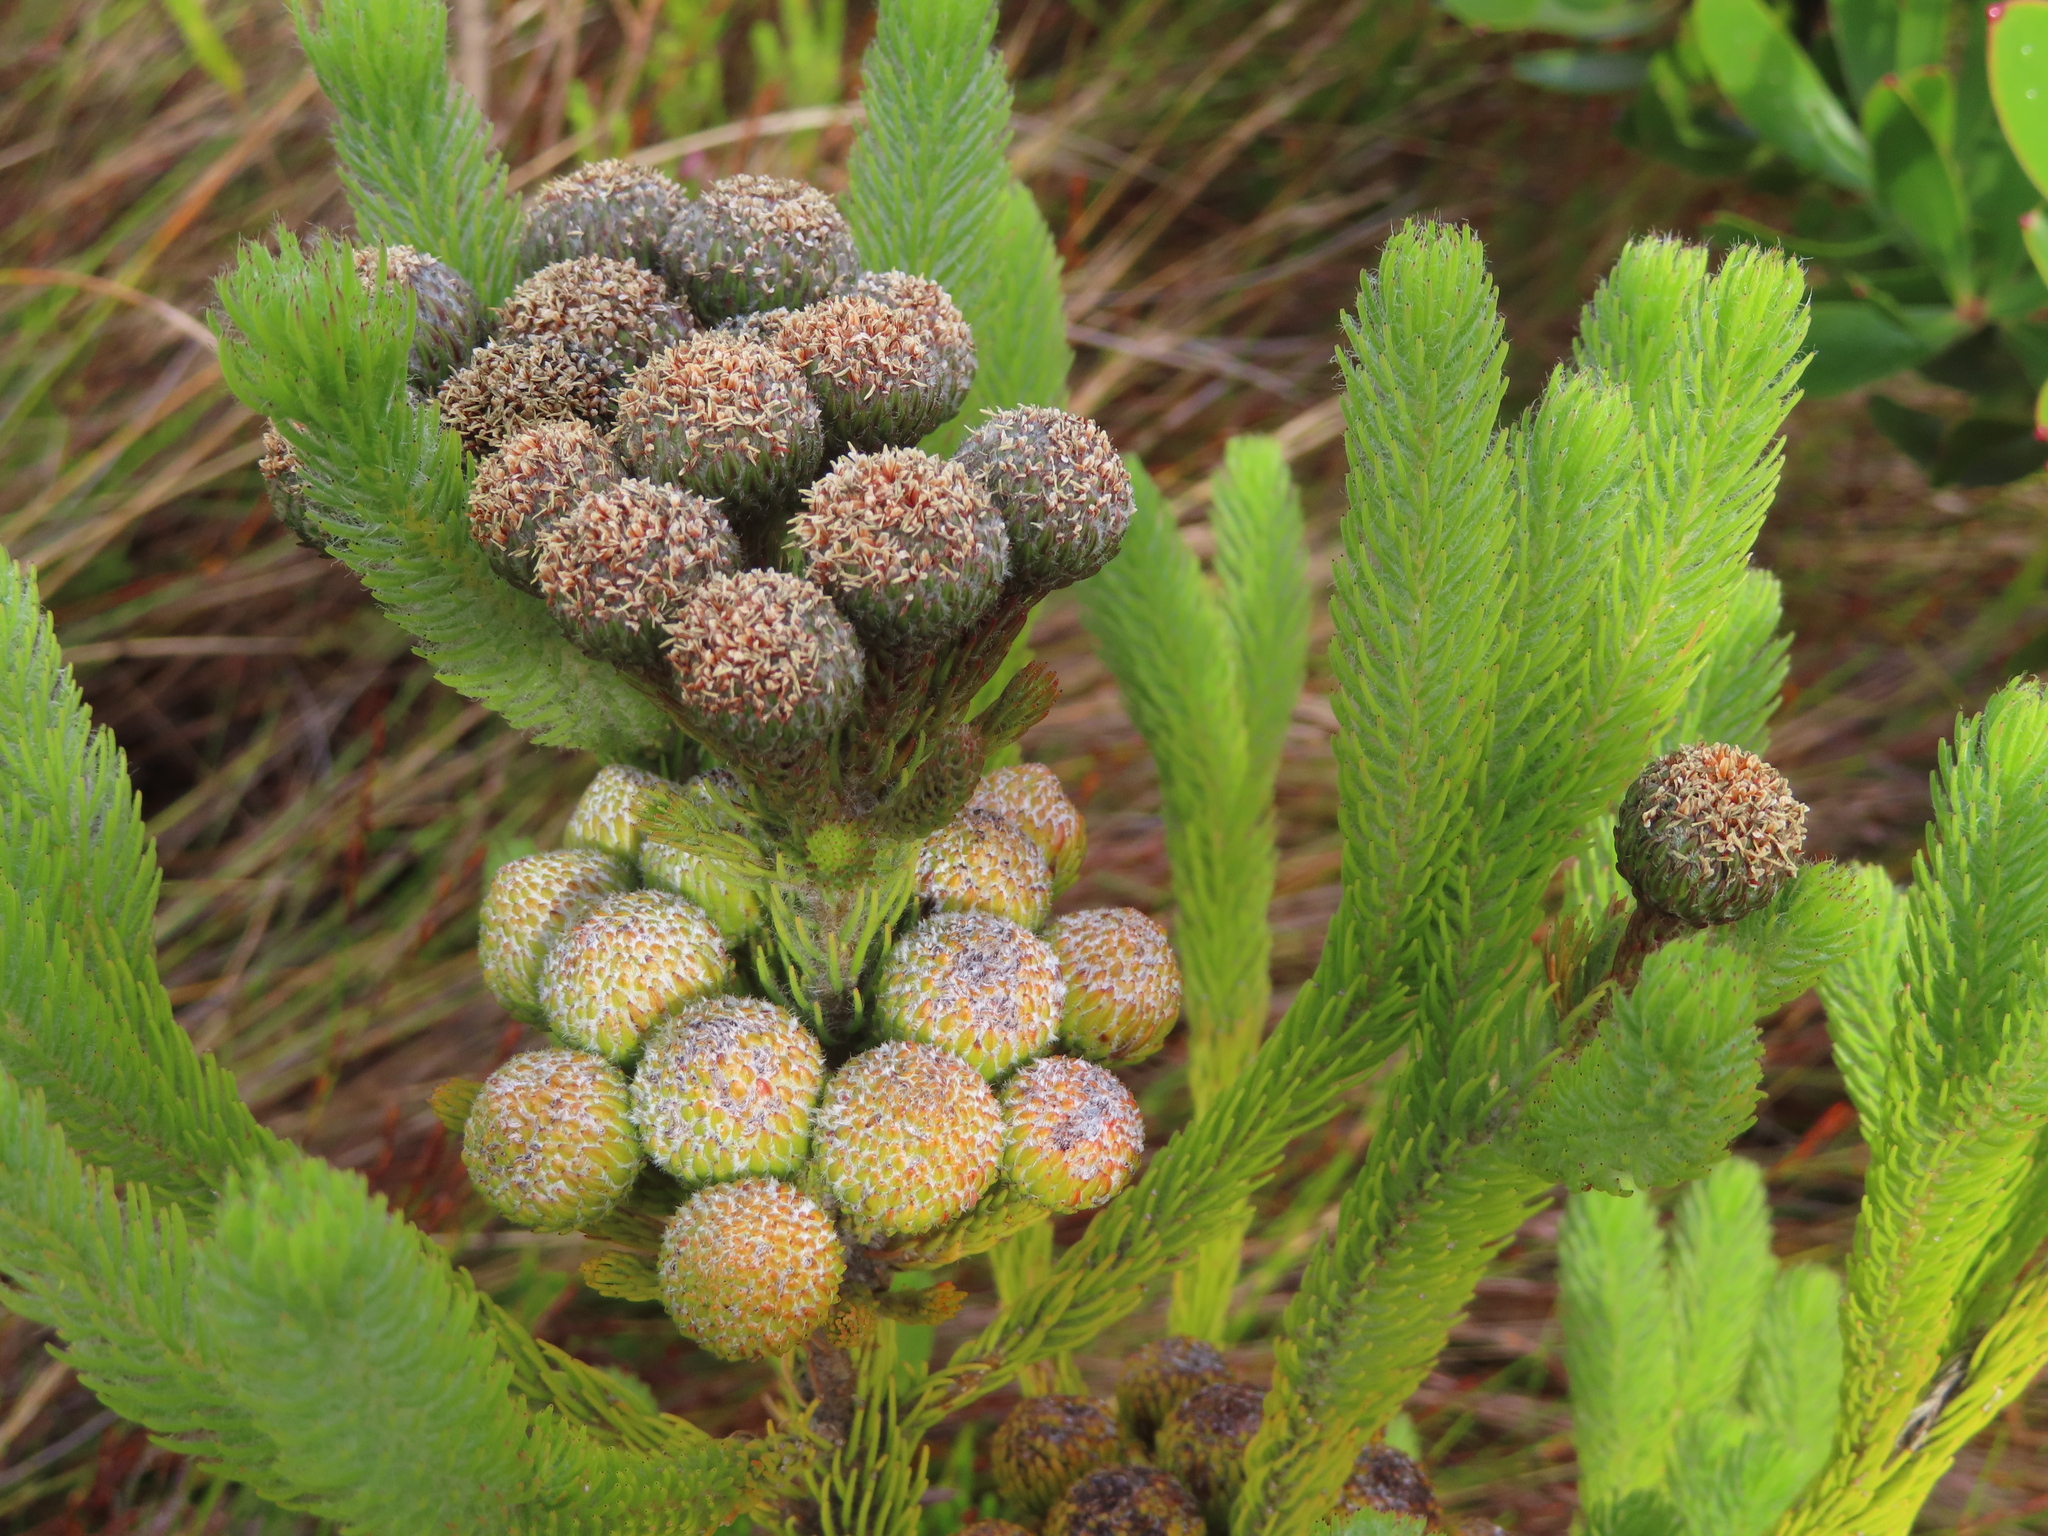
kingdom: Plantae
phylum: Tracheophyta
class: Magnoliopsida
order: Bruniales
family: Bruniaceae
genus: Berzelia
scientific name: Berzelia albiflora
